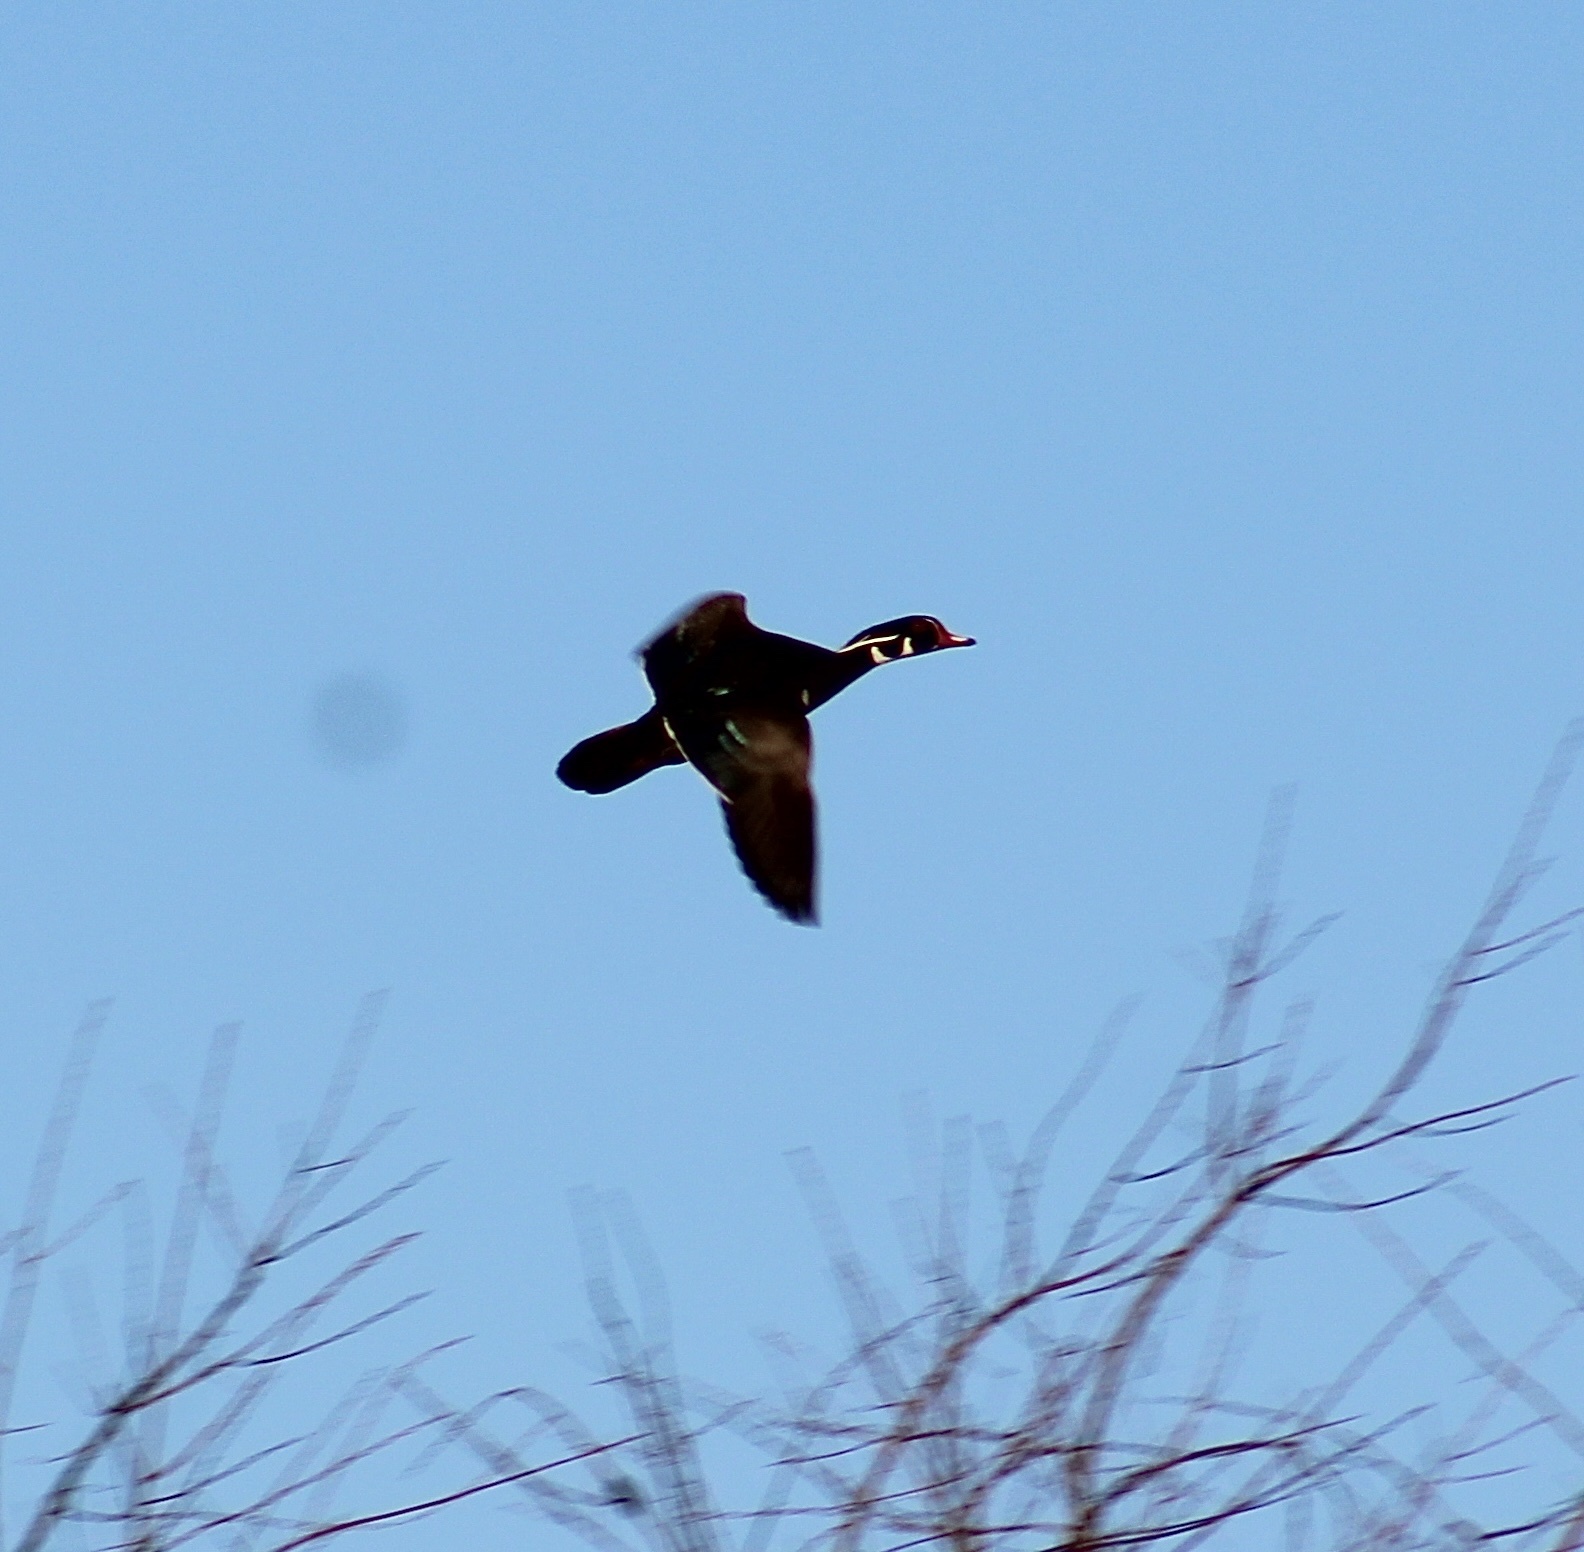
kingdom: Animalia
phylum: Chordata
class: Aves
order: Anseriformes
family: Anatidae
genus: Aix
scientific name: Aix sponsa
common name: Wood duck
